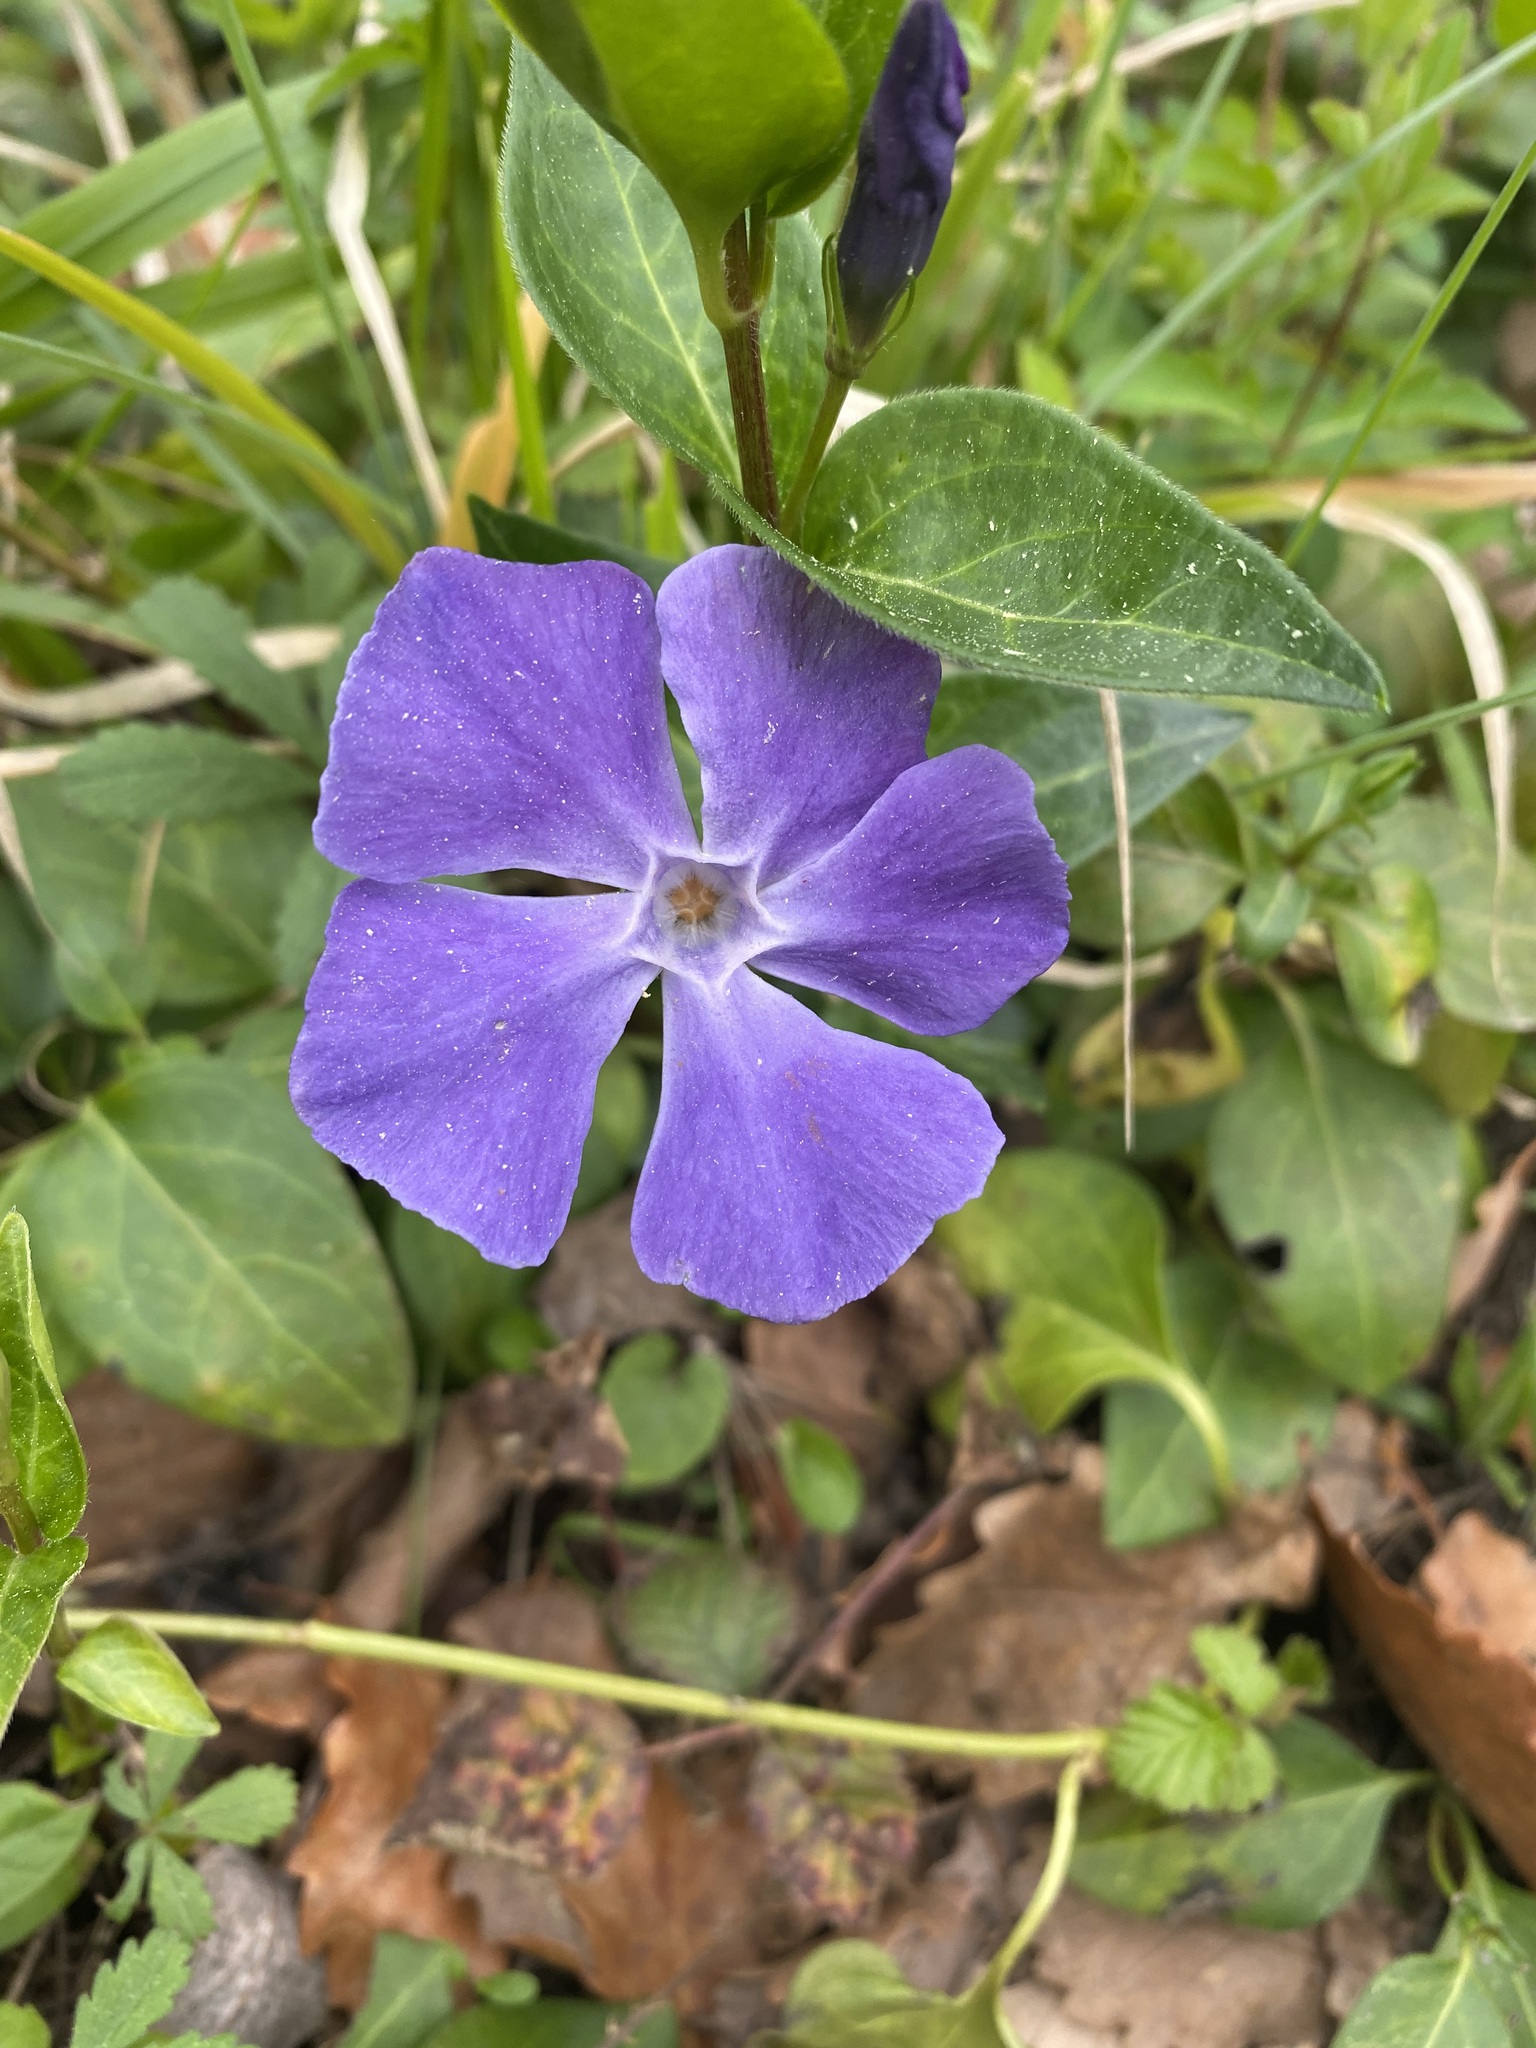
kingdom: Plantae
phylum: Tracheophyta
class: Magnoliopsida
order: Gentianales
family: Apocynaceae
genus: Vinca
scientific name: Vinca major
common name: Greater periwinkle
